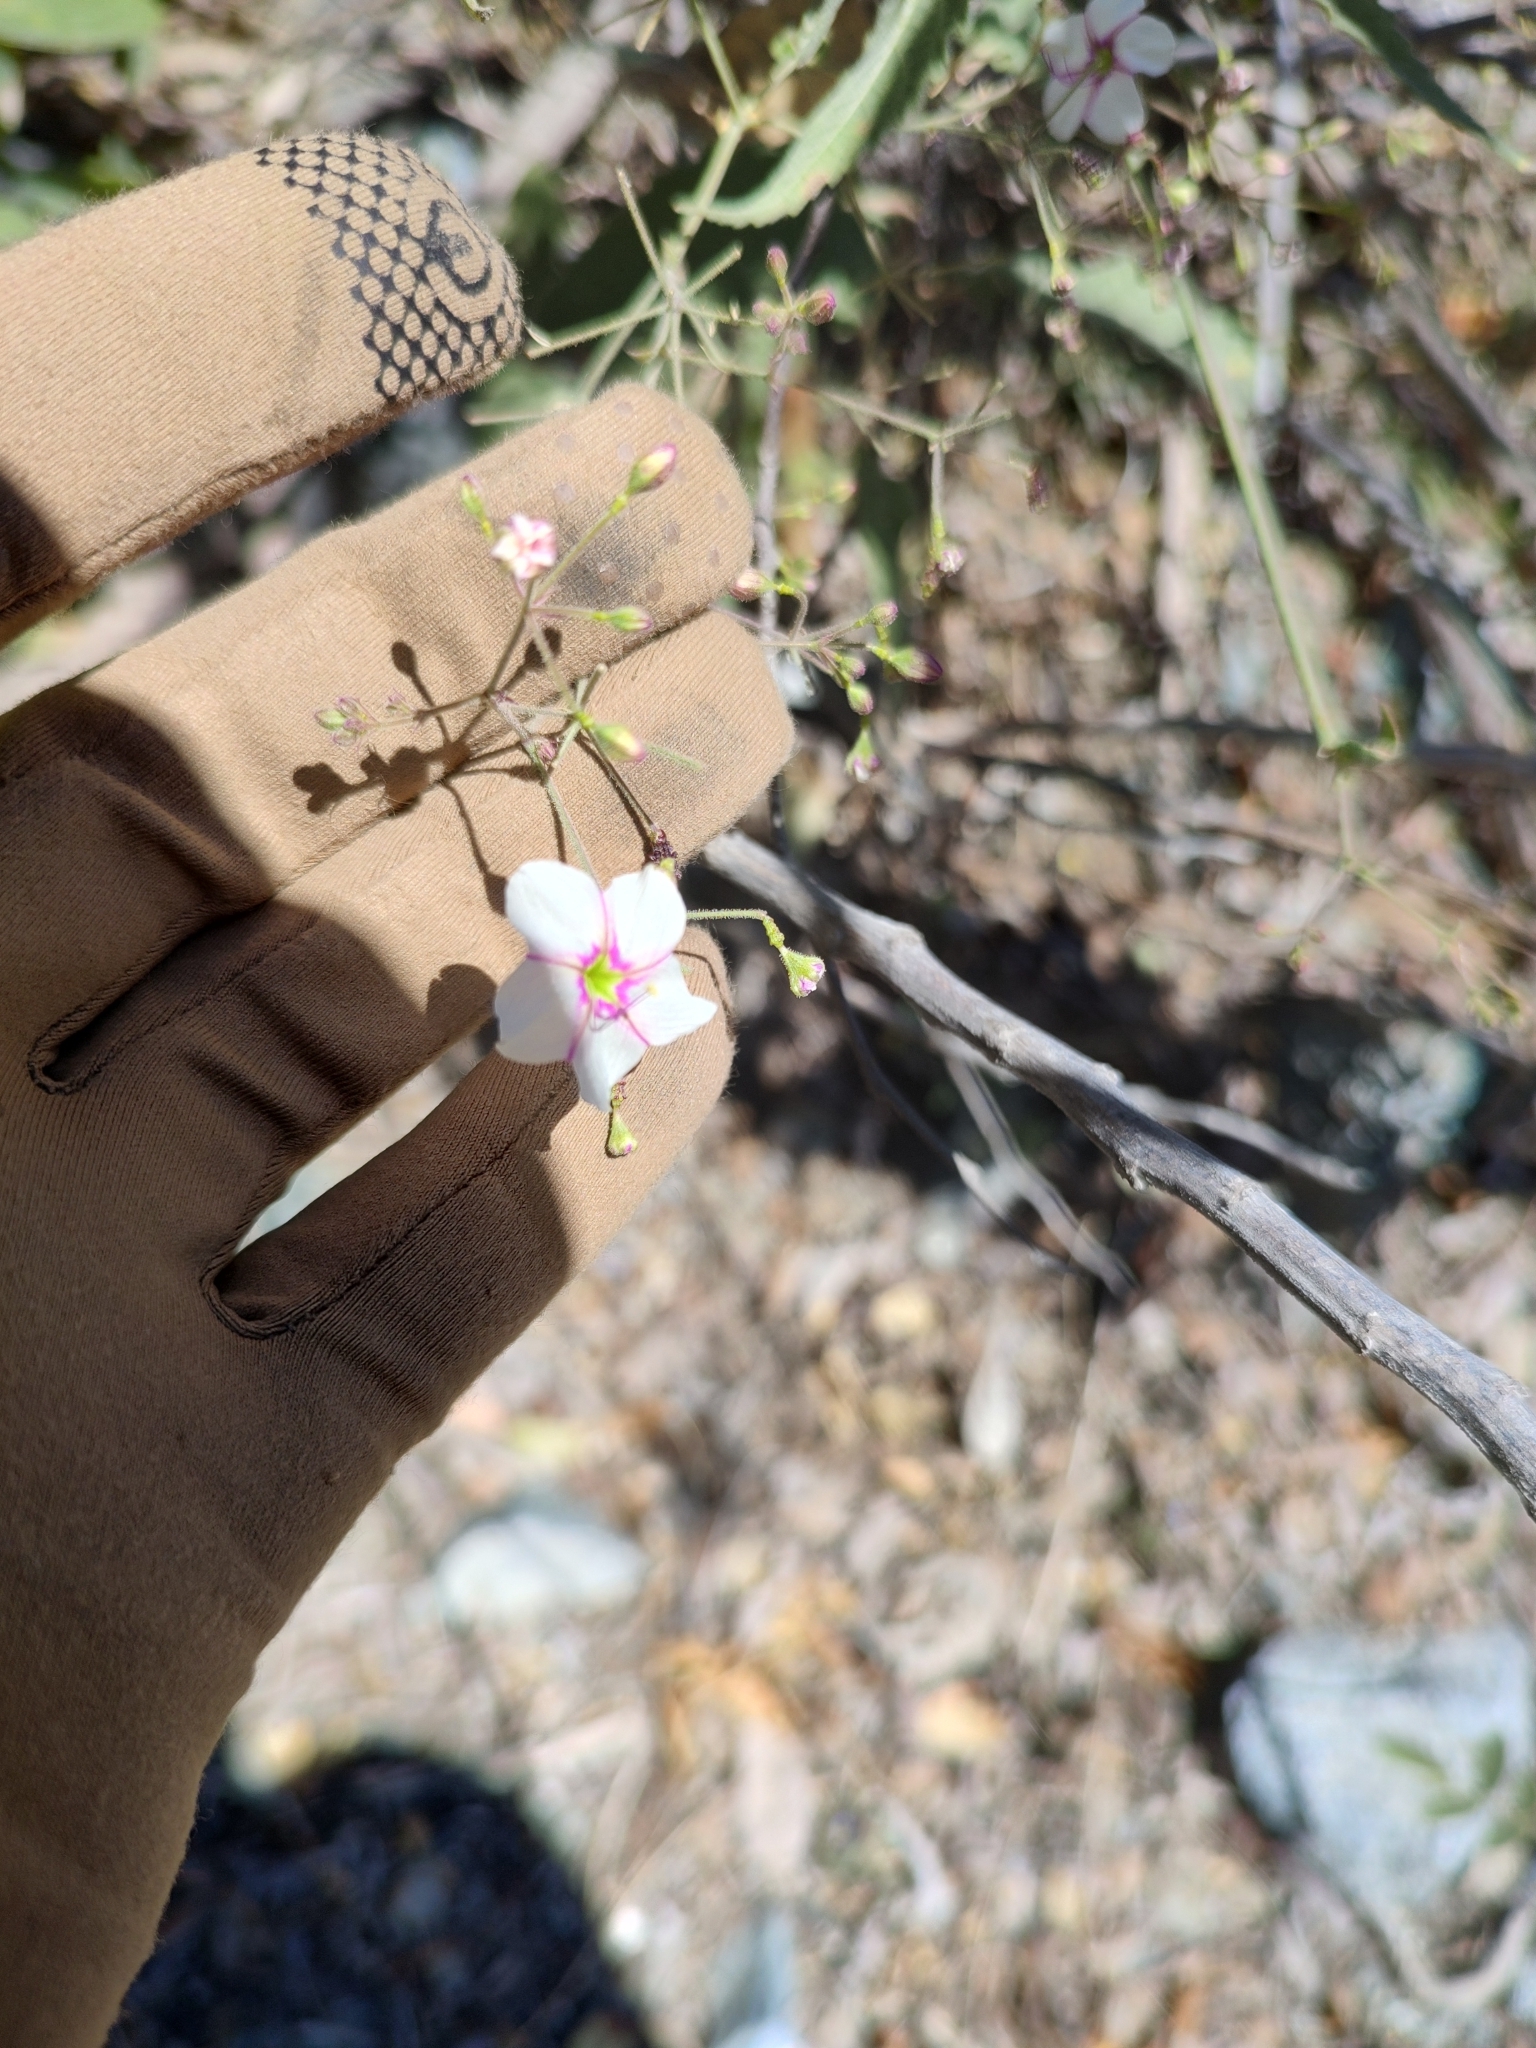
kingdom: Plantae
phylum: Tracheophyta
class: Magnoliopsida
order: Caryophyllales
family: Nyctaginaceae
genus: Commicarpus
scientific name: Commicarpus brandegeei
